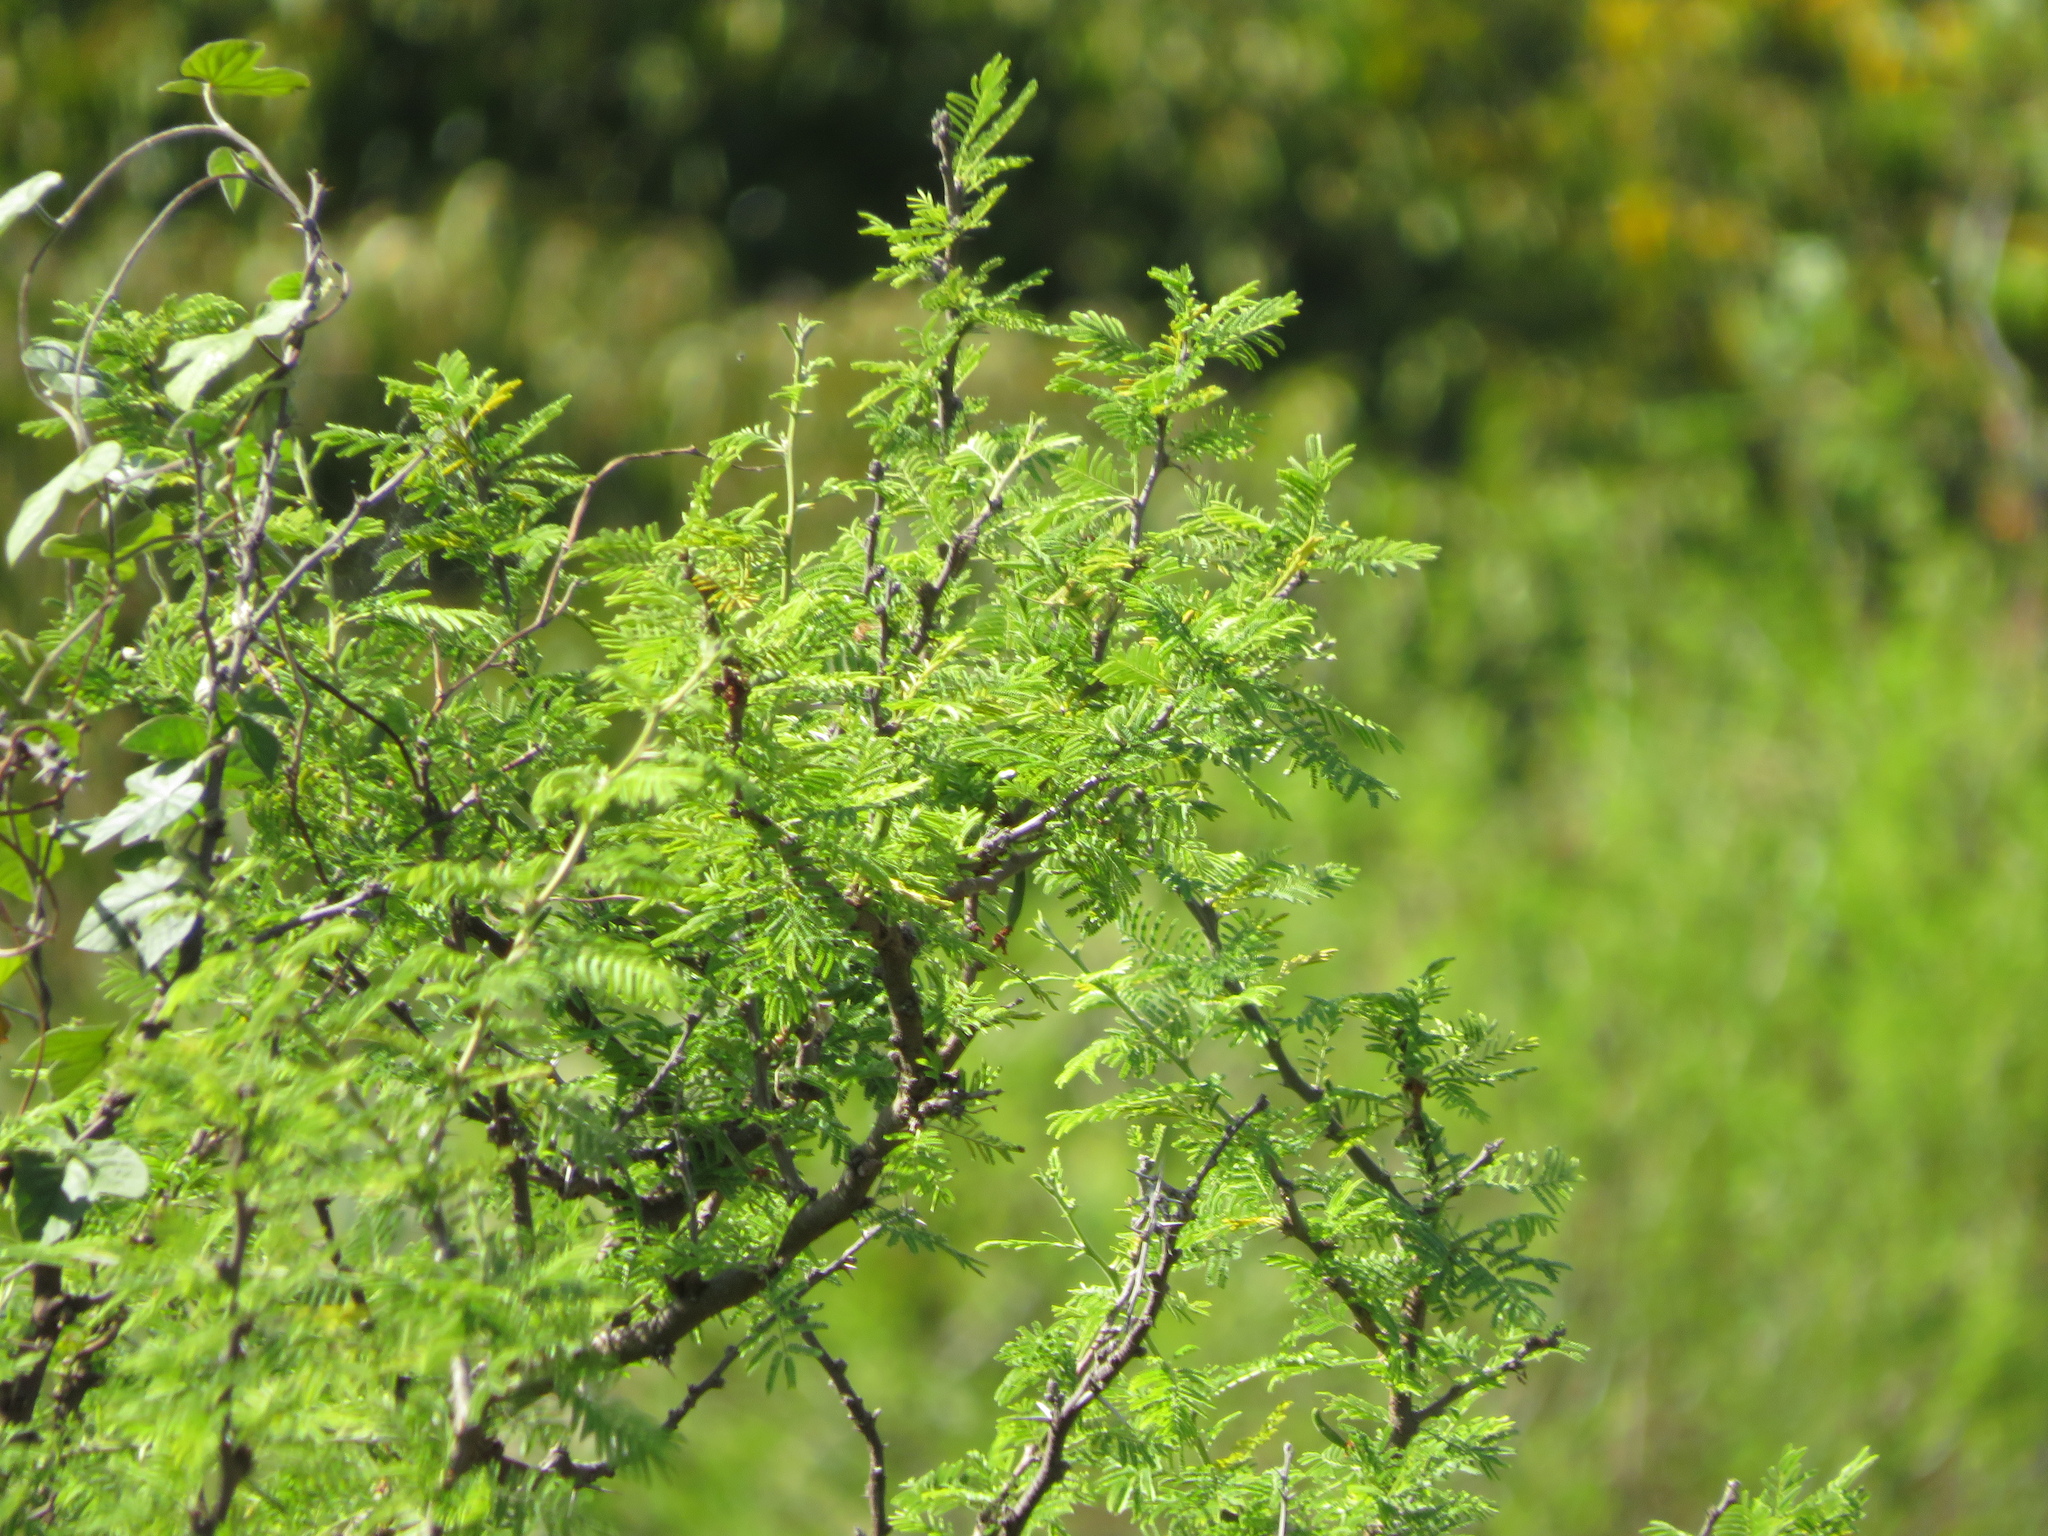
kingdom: Plantae
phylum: Tracheophyta
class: Magnoliopsida
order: Fabales
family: Fabaceae
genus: Vachellia
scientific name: Vachellia caven
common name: Roman cassie
